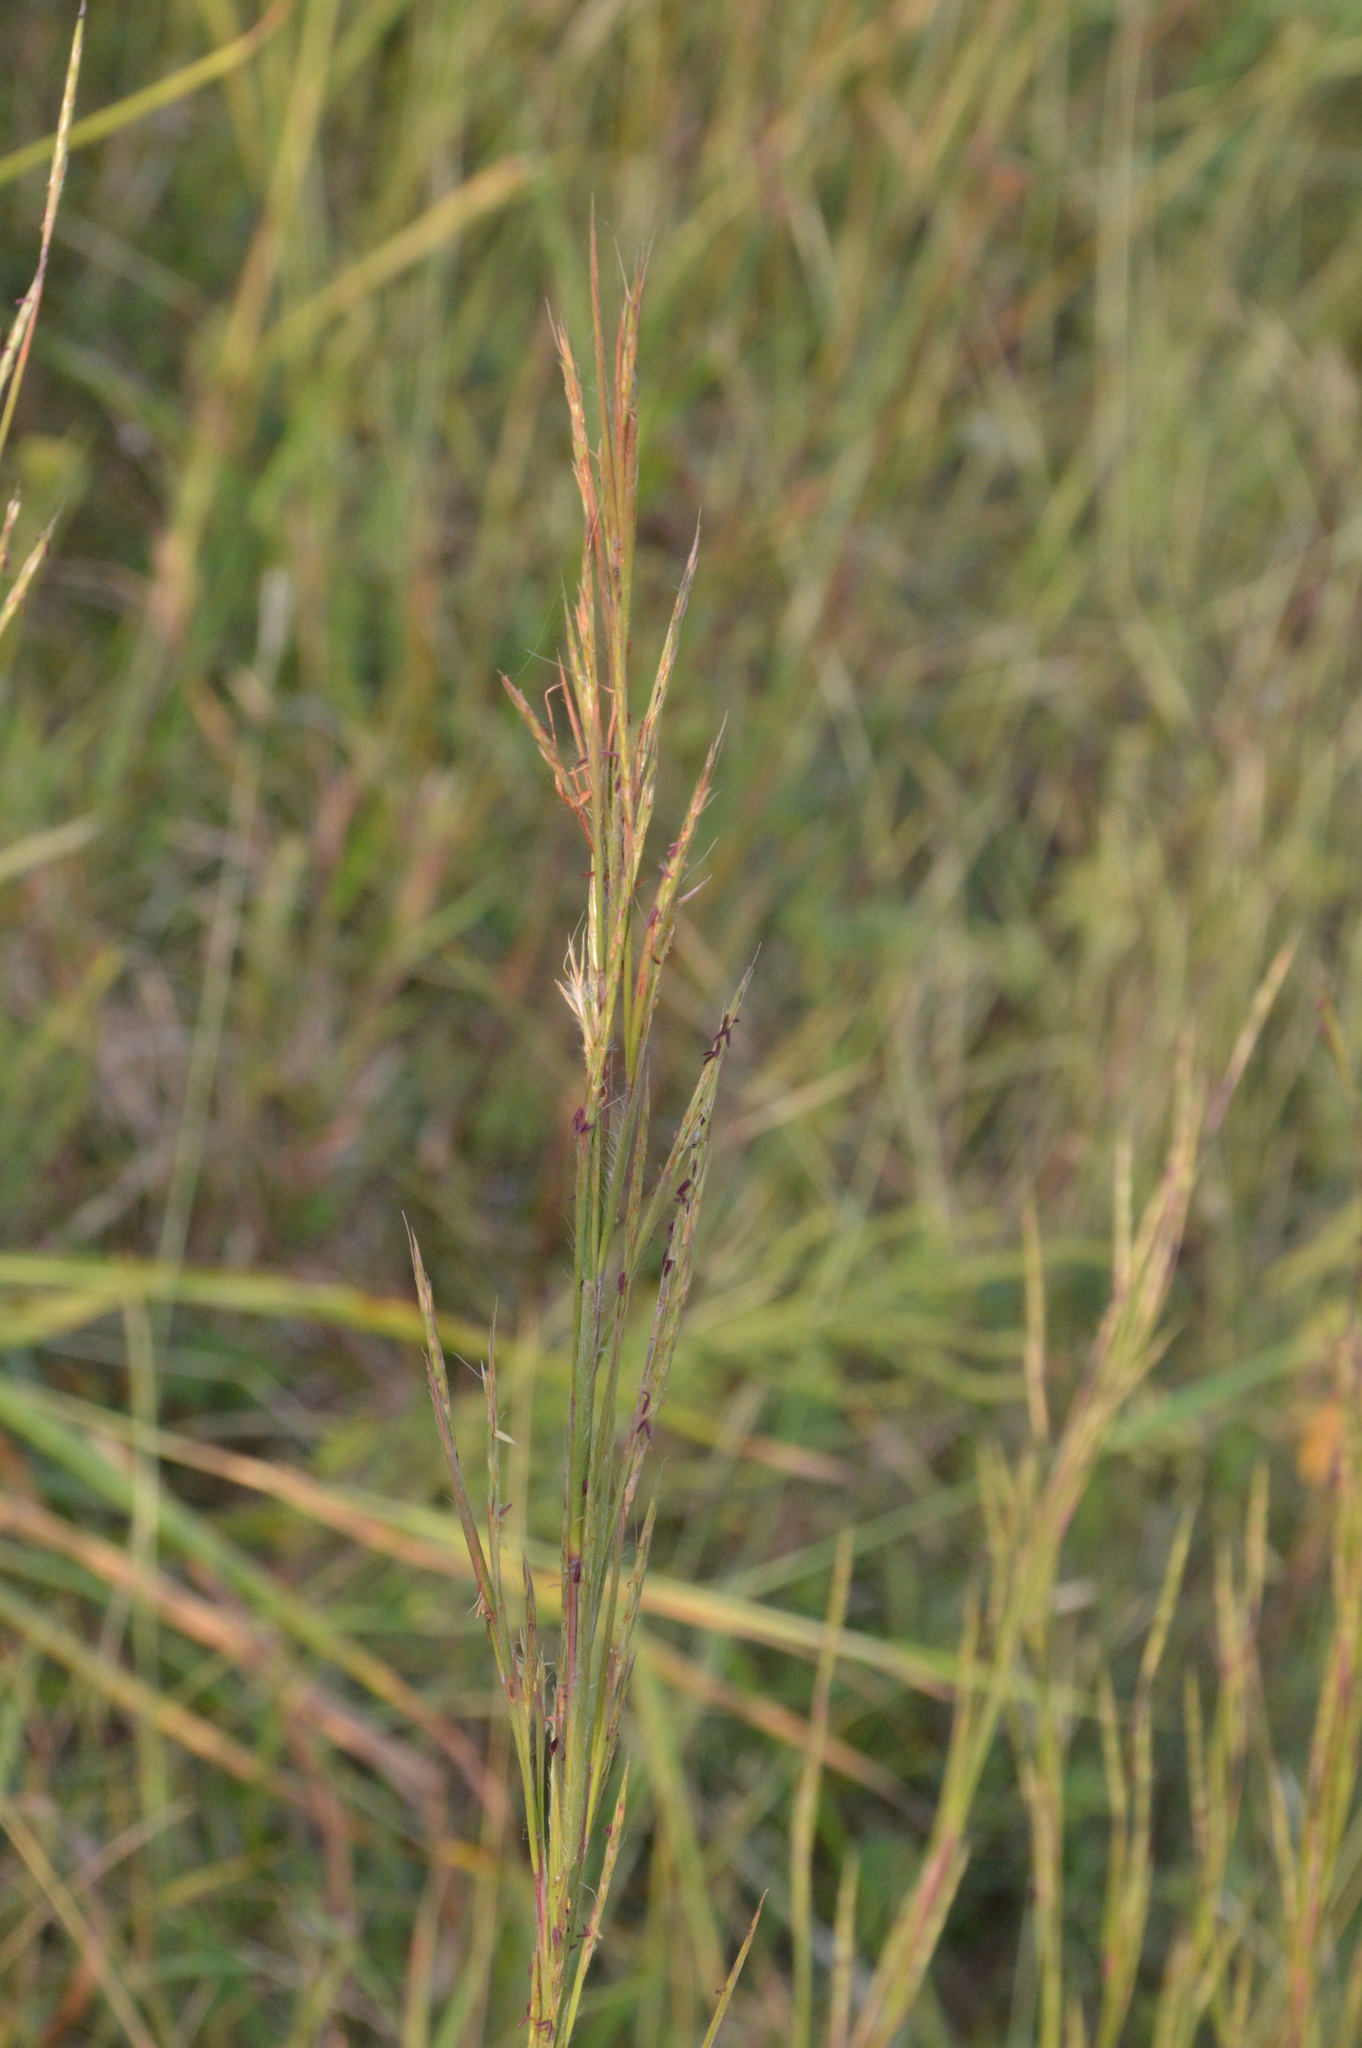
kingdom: Plantae
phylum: Tracheophyta
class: Liliopsida
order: Poales
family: Poaceae
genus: Schizachyrium
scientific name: Schizachyrium scoparium
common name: Little bluestem
